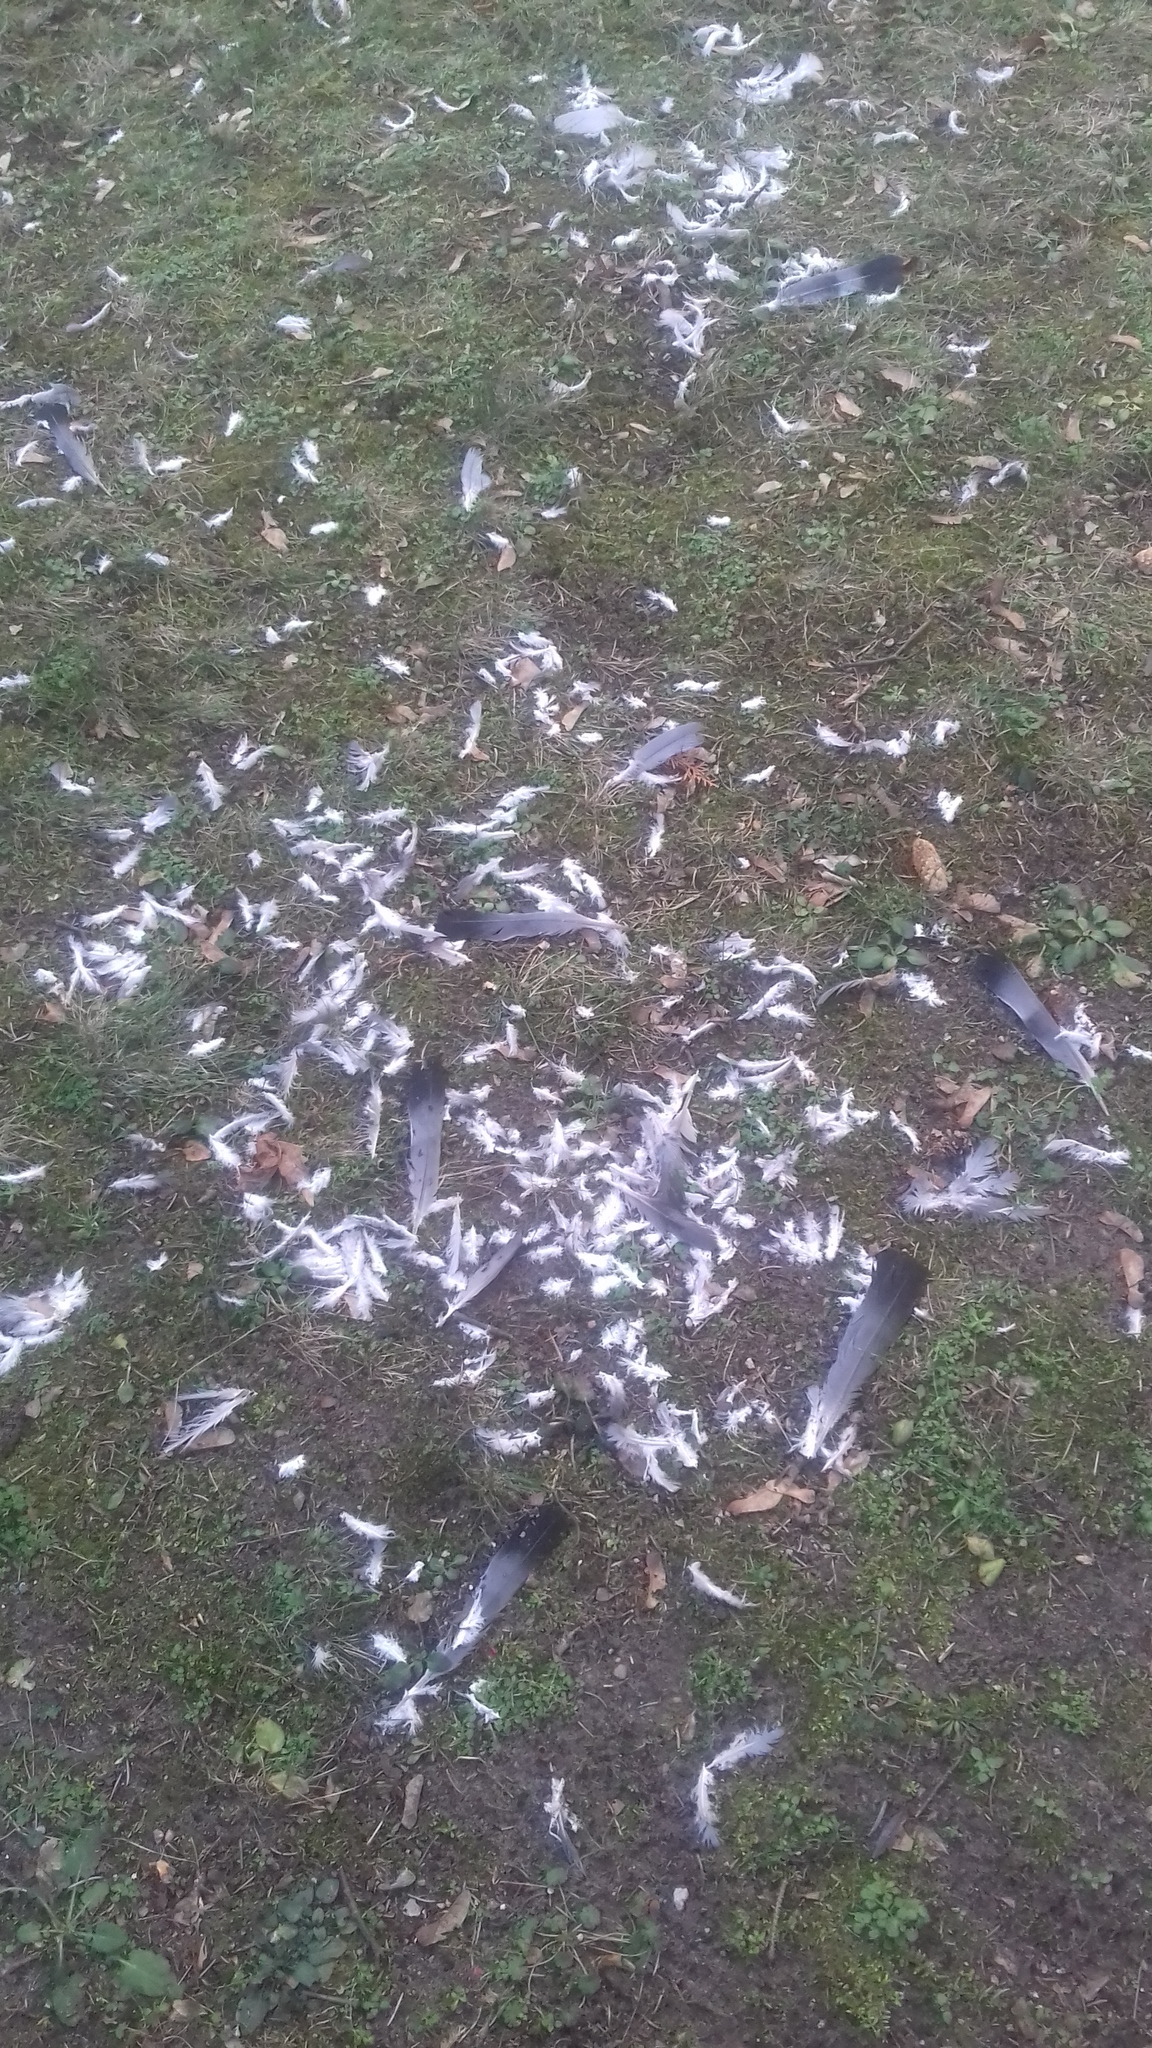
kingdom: Animalia
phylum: Chordata
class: Aves
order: Columbiformes
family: Columbidae
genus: Columba
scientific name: Columba palumbus
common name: Common wood pigeon
